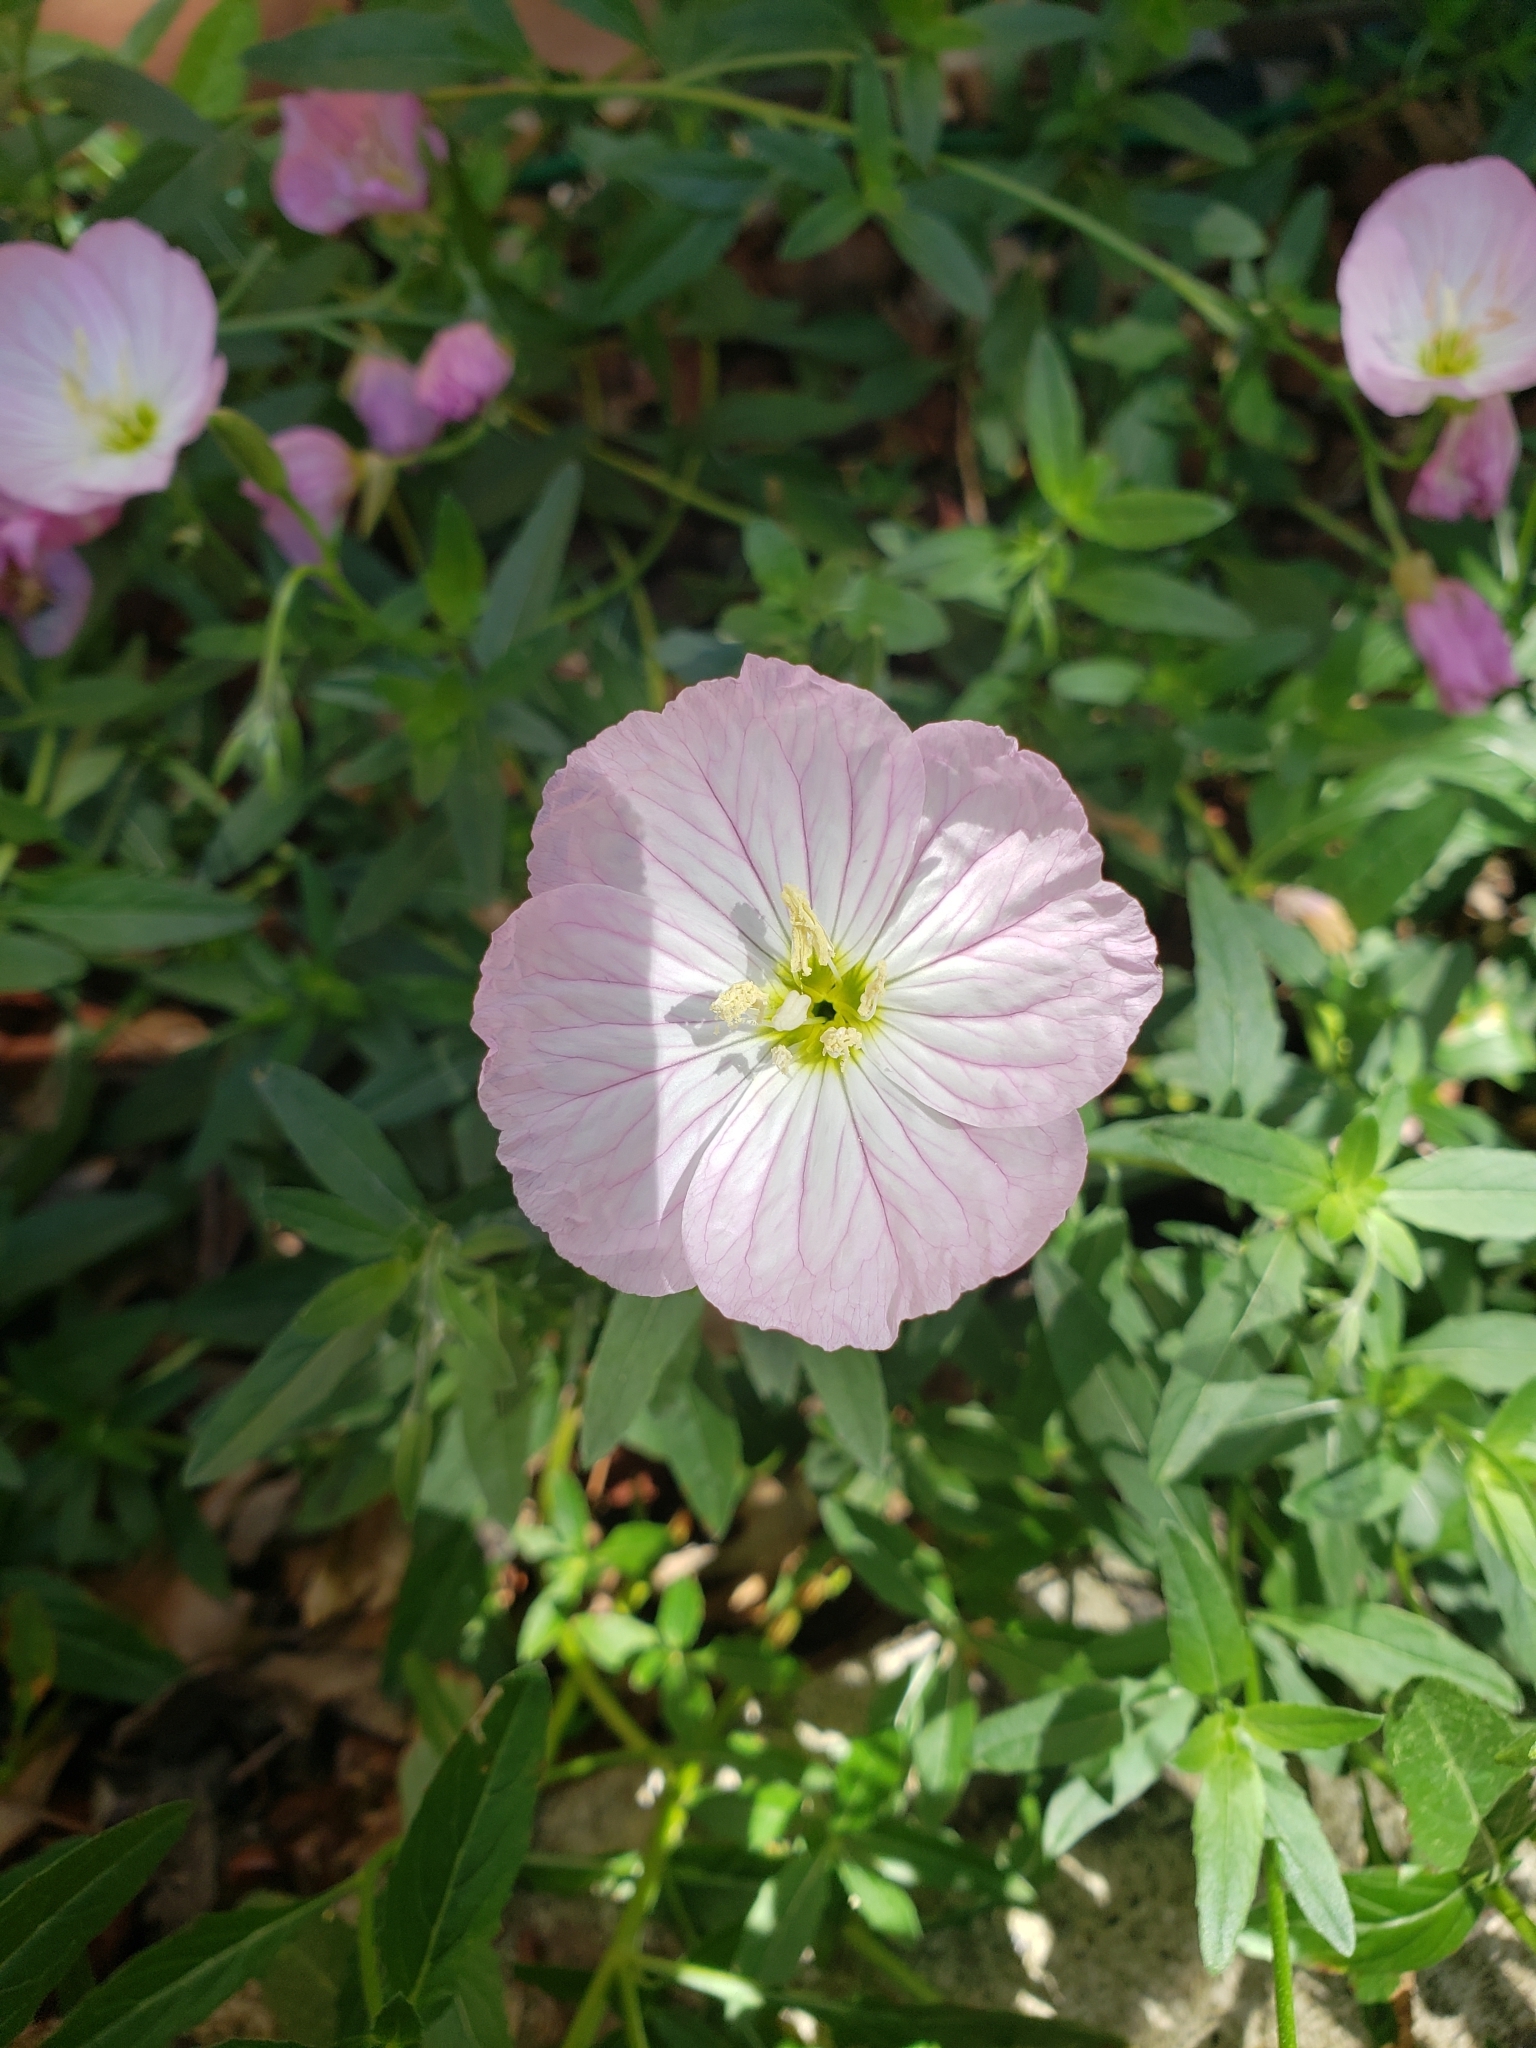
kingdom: Plantae
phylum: Tracheophyta
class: Magnoliopsida
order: Myrtales
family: Onagraceae
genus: Oenothera
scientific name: Oenothera speciosa
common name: White evening-primrose
